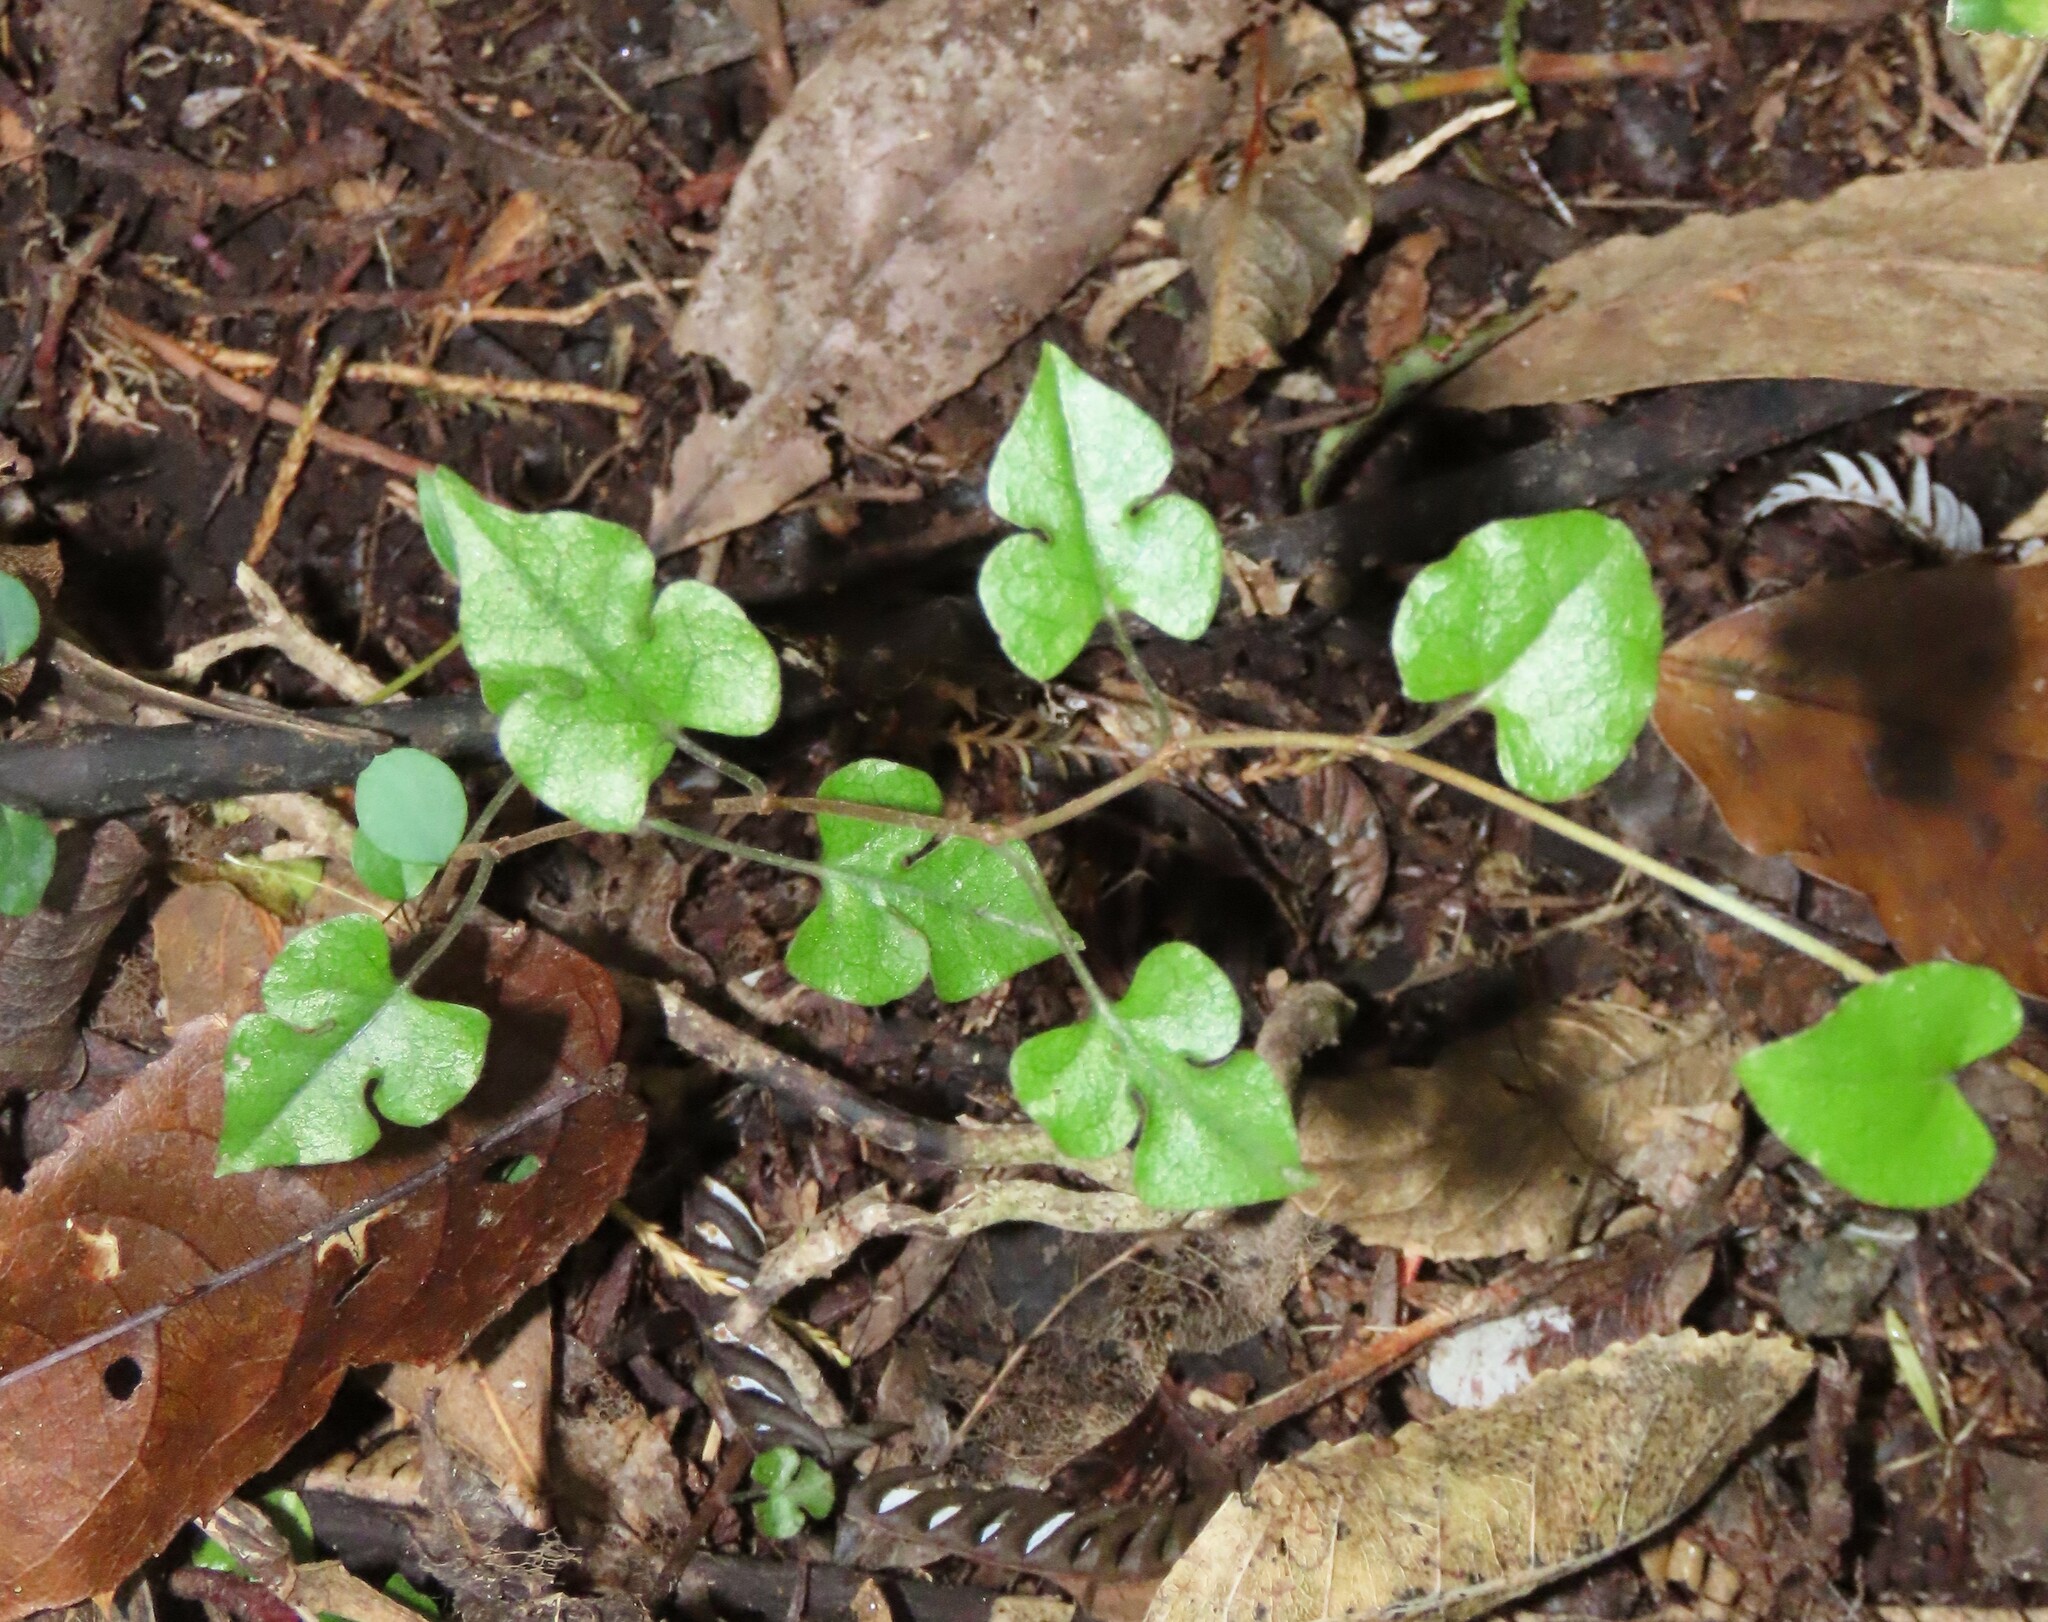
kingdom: Plantae
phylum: Tracheophyta
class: Magnoliopsida
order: Caryophyllales
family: Polygonaceae
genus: Muehlenbeckia
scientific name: Muehlenbeckia australis
